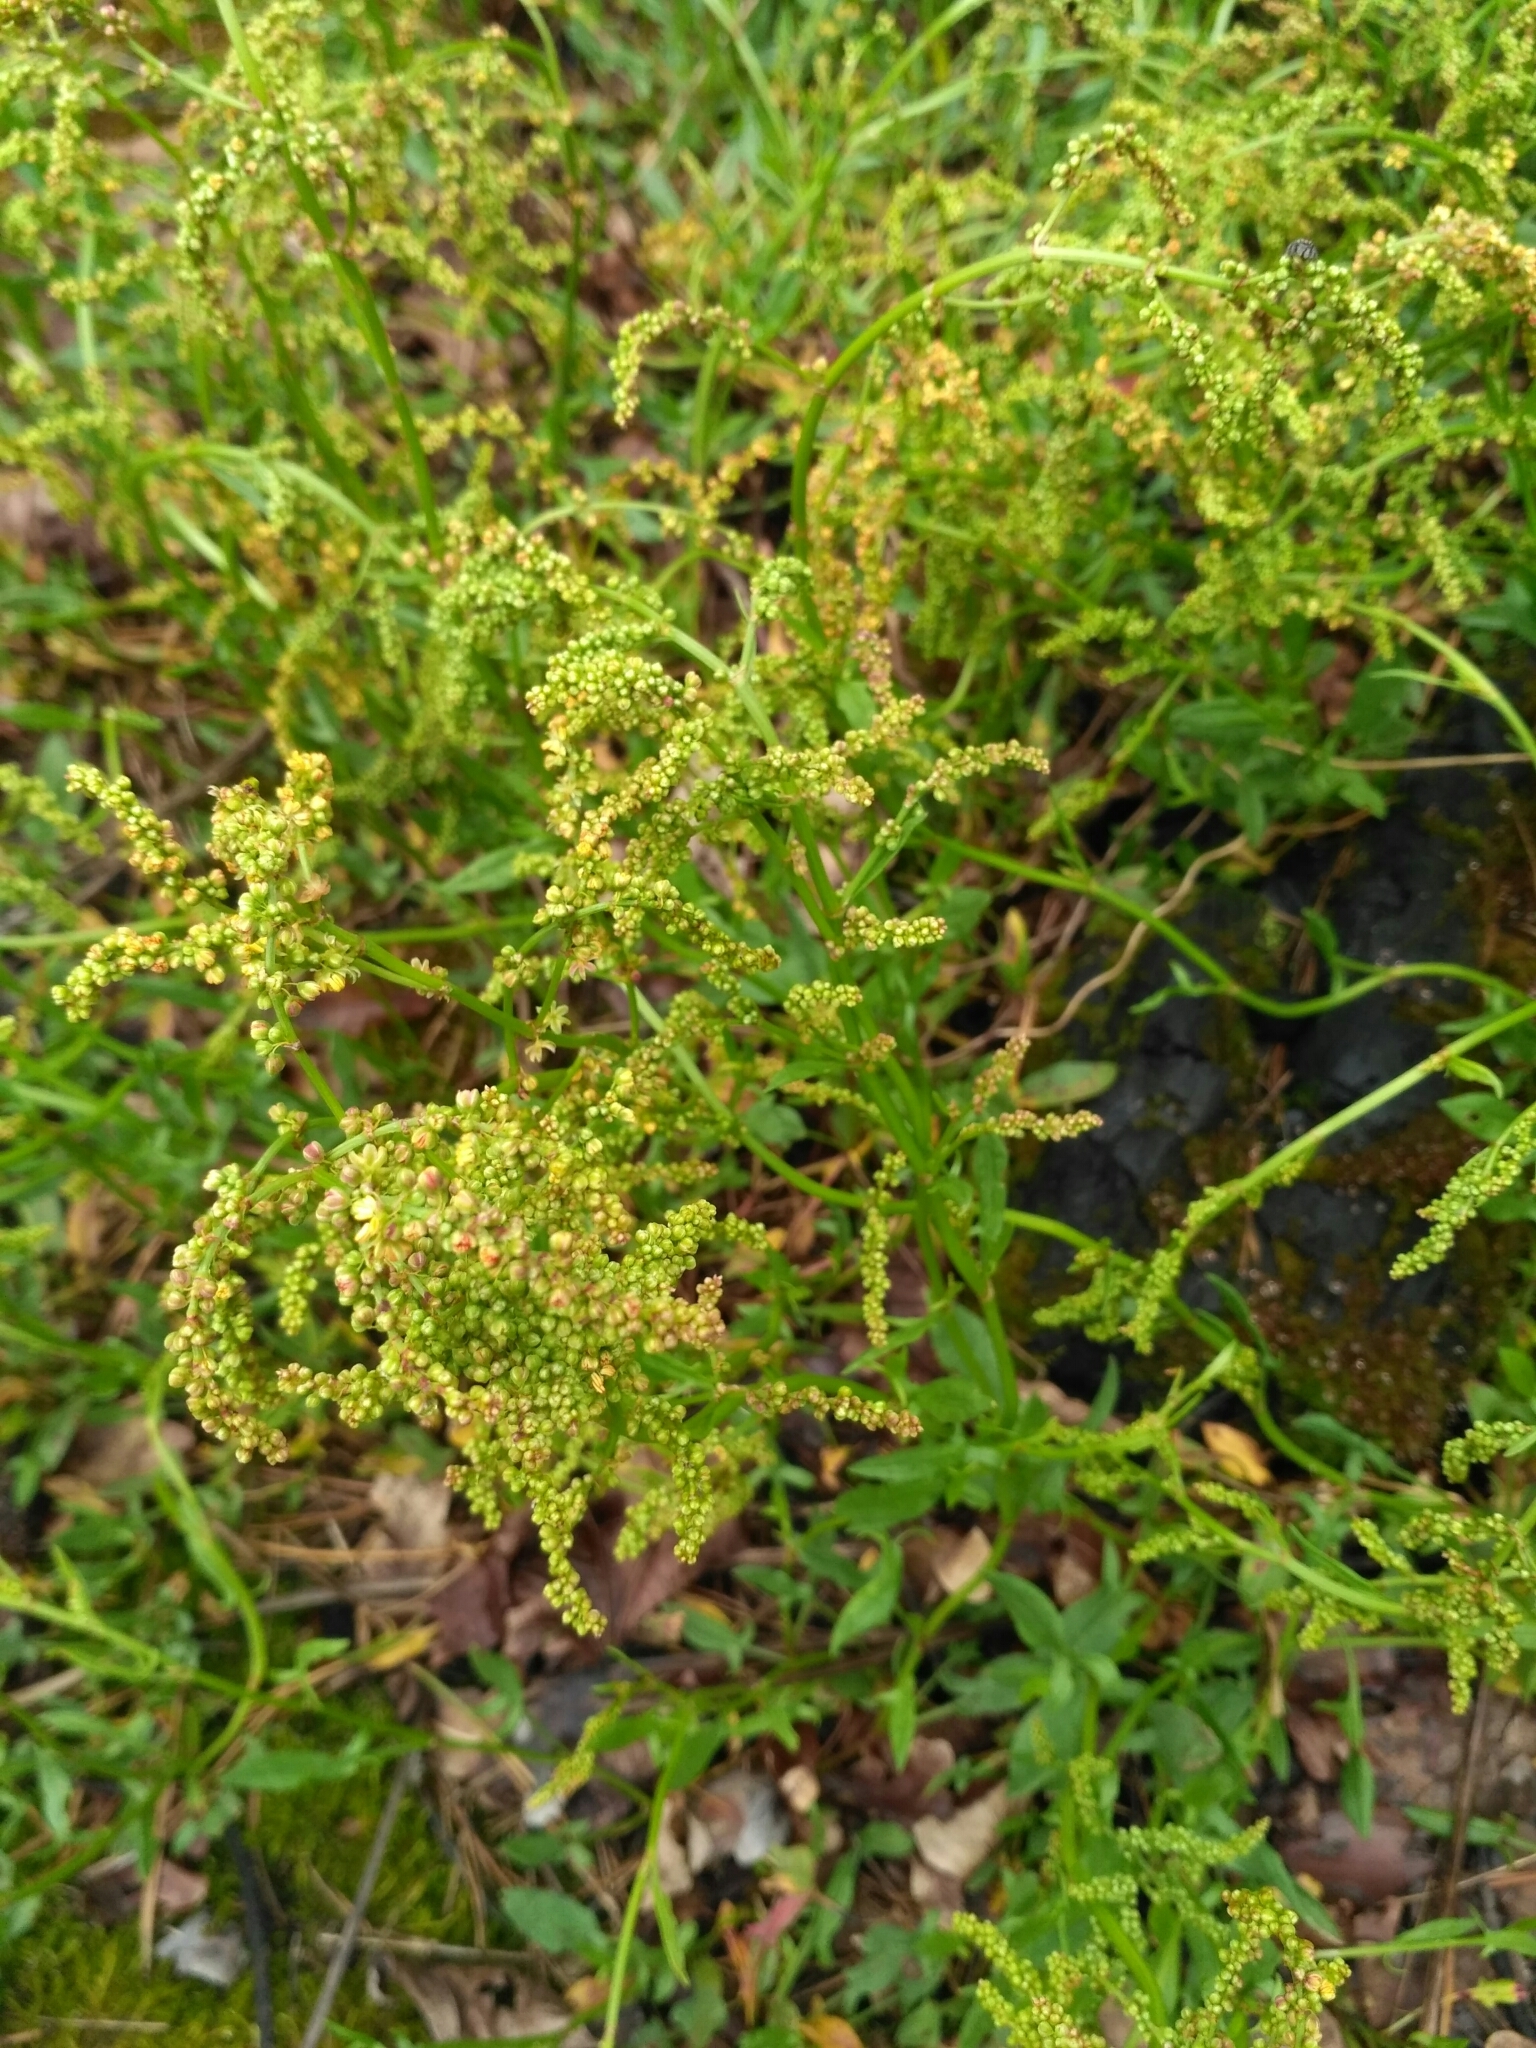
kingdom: Plantae
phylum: Tracheophyta
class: Magnoliopsida
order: Caryophyllales
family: Polygonaceae
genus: Rumex
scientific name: Rumex acetosella
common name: Common sheep sorrel
